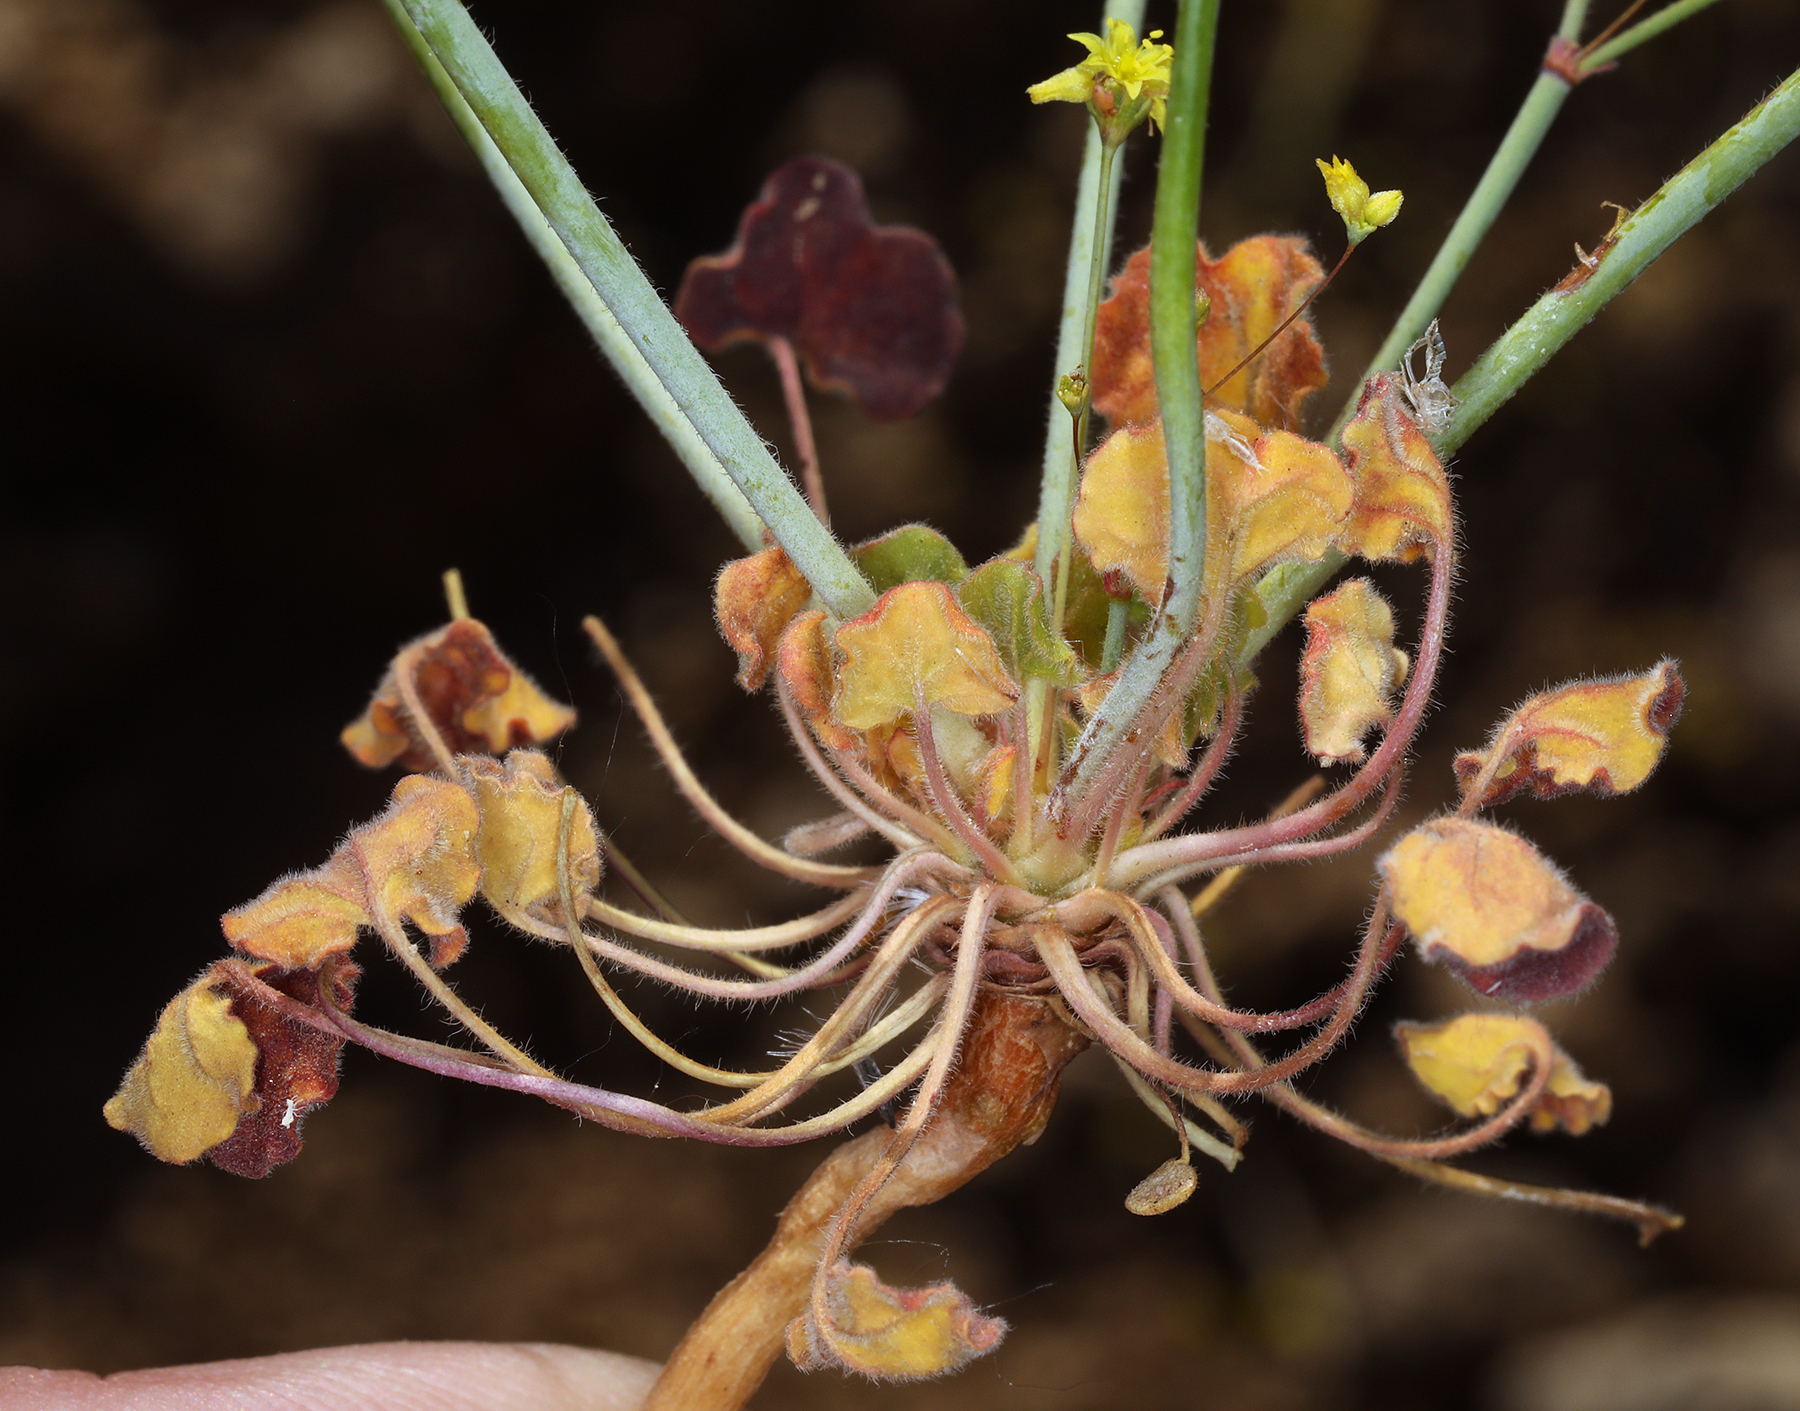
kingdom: Plantae
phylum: Tracheophyta
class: Magnoliopsida
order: Caryophyllales
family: Polygonaceae
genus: Eriogonum
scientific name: Eriogonum trichopes
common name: Little desert trumpet
